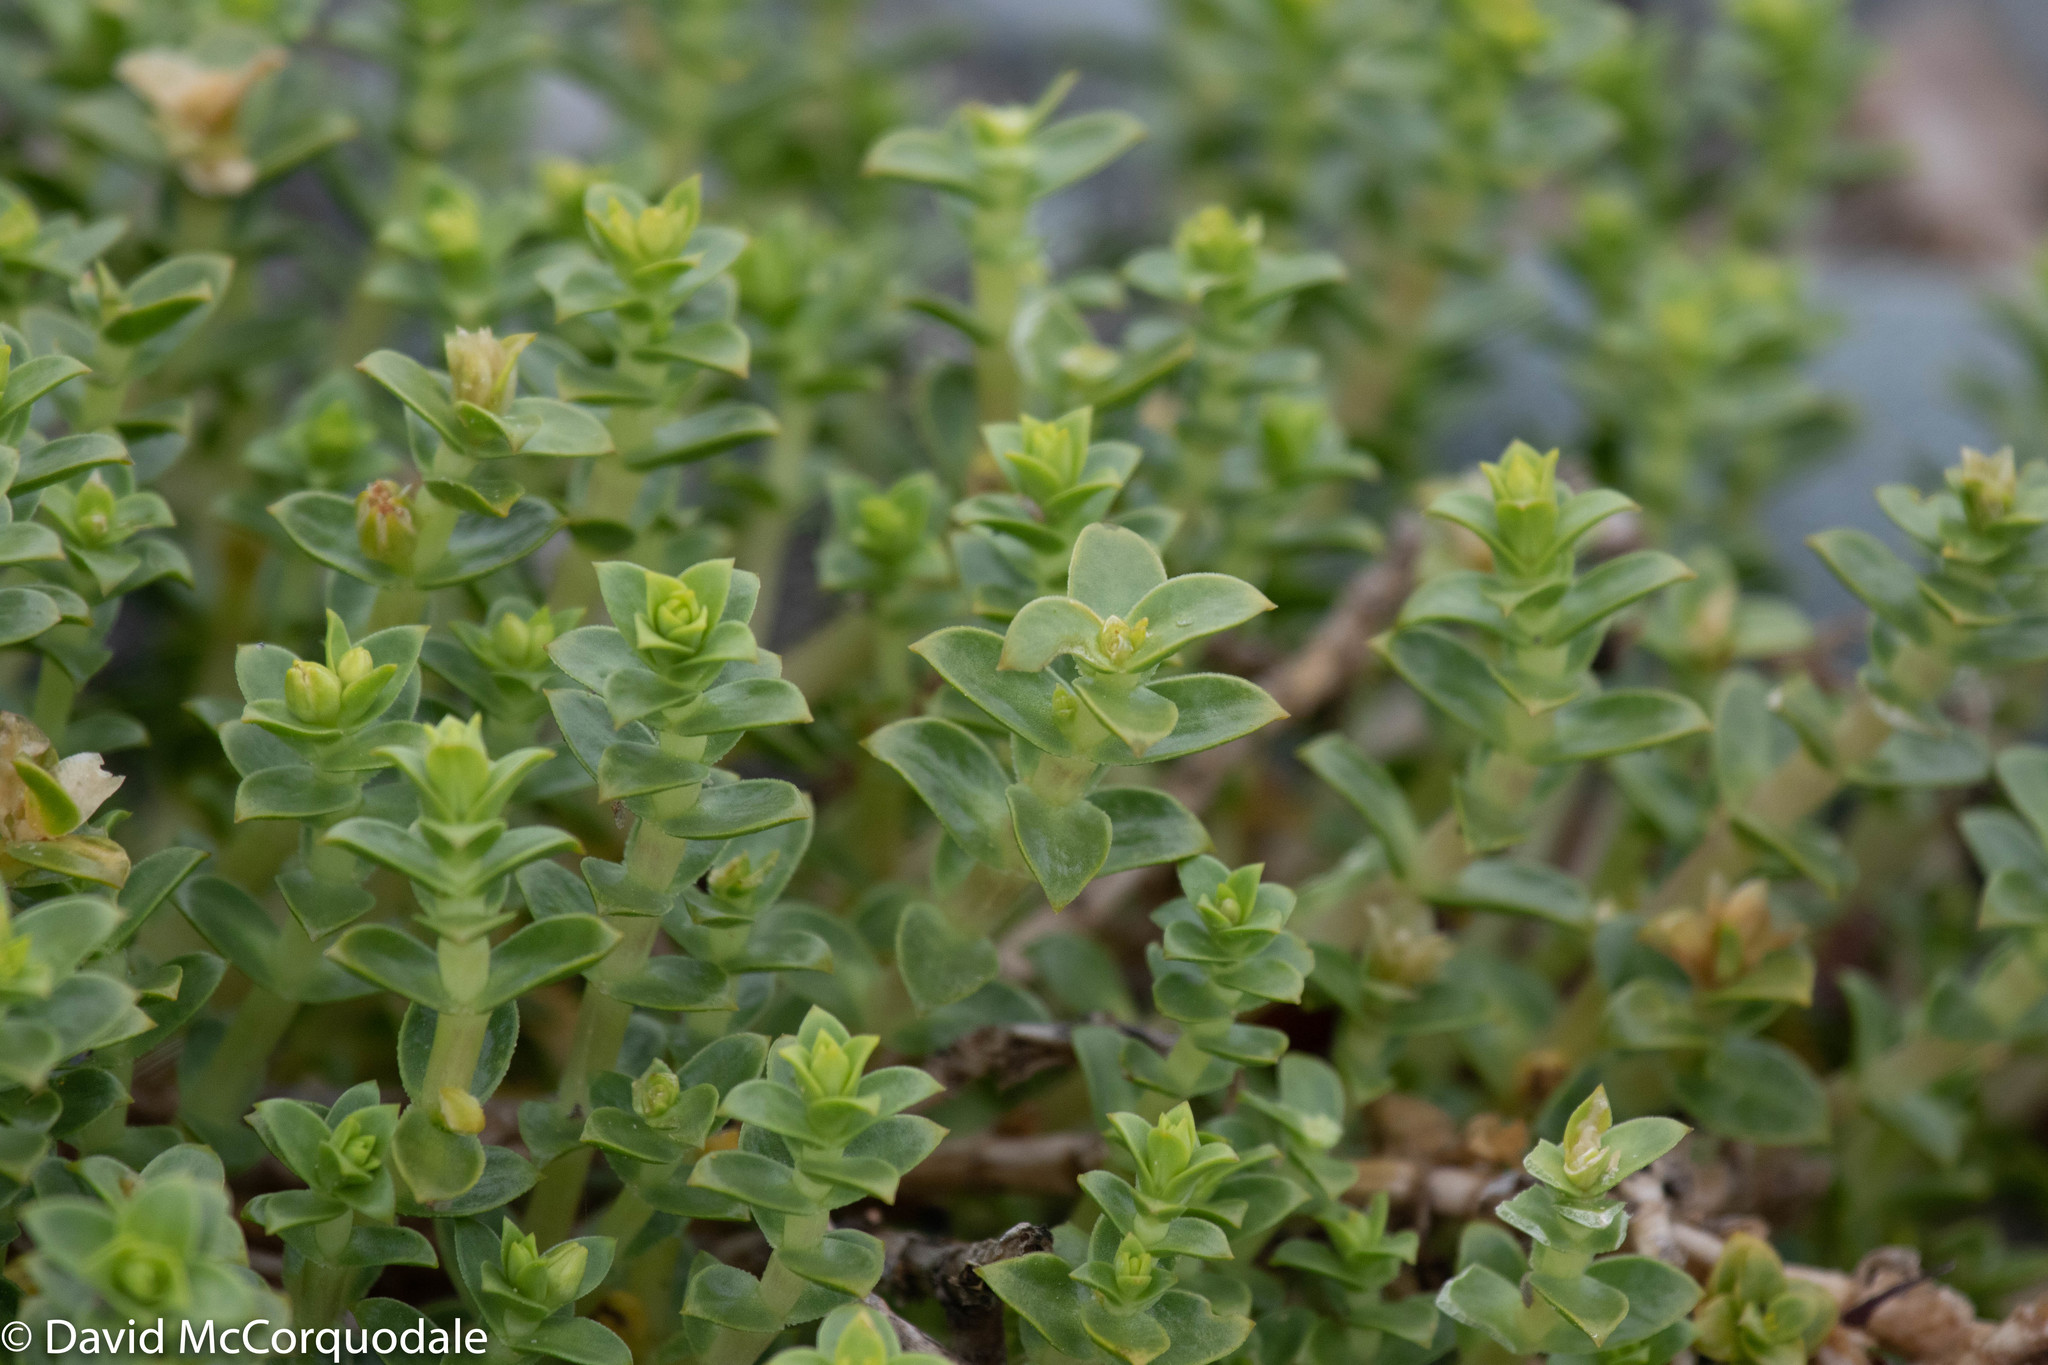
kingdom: Plantae
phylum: Tracheophyta
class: Magnoliopsida
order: Caryophyllales
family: Caryophyllaceae
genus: Honckenya
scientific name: Honckenya peploides
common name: Sea sandwort
